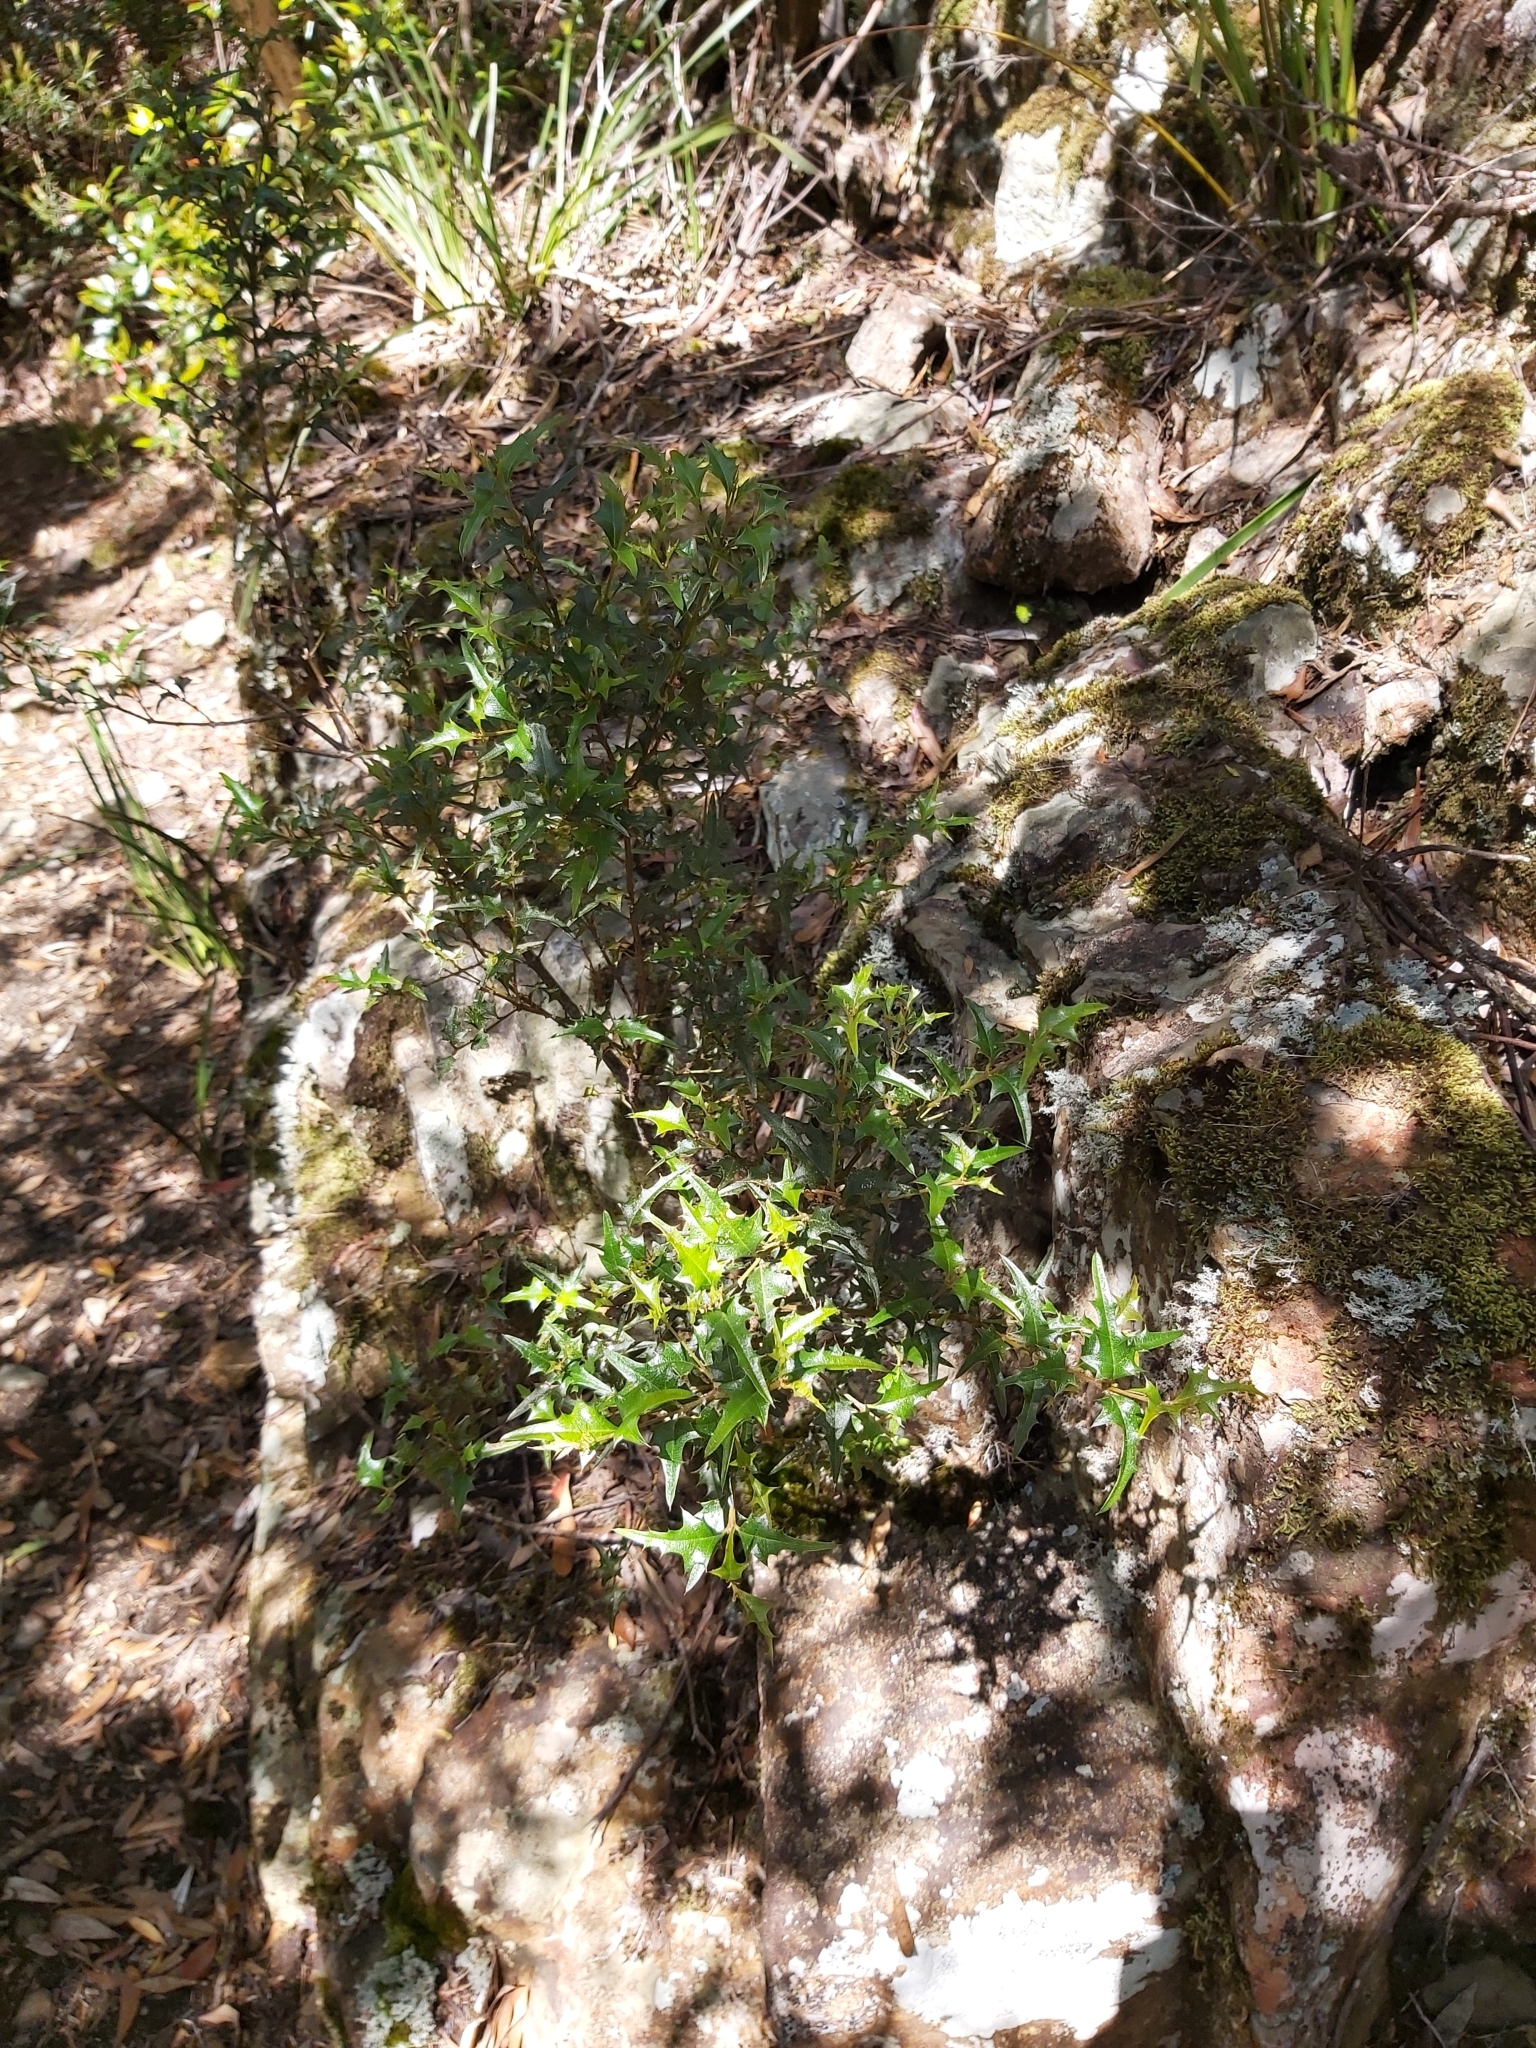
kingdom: Plantae
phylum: Tracheophyta
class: Magnoliopsida
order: Fabales
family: Fabaceae
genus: Podolobium
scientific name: Podolobium ilicifolium
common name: Native holly
